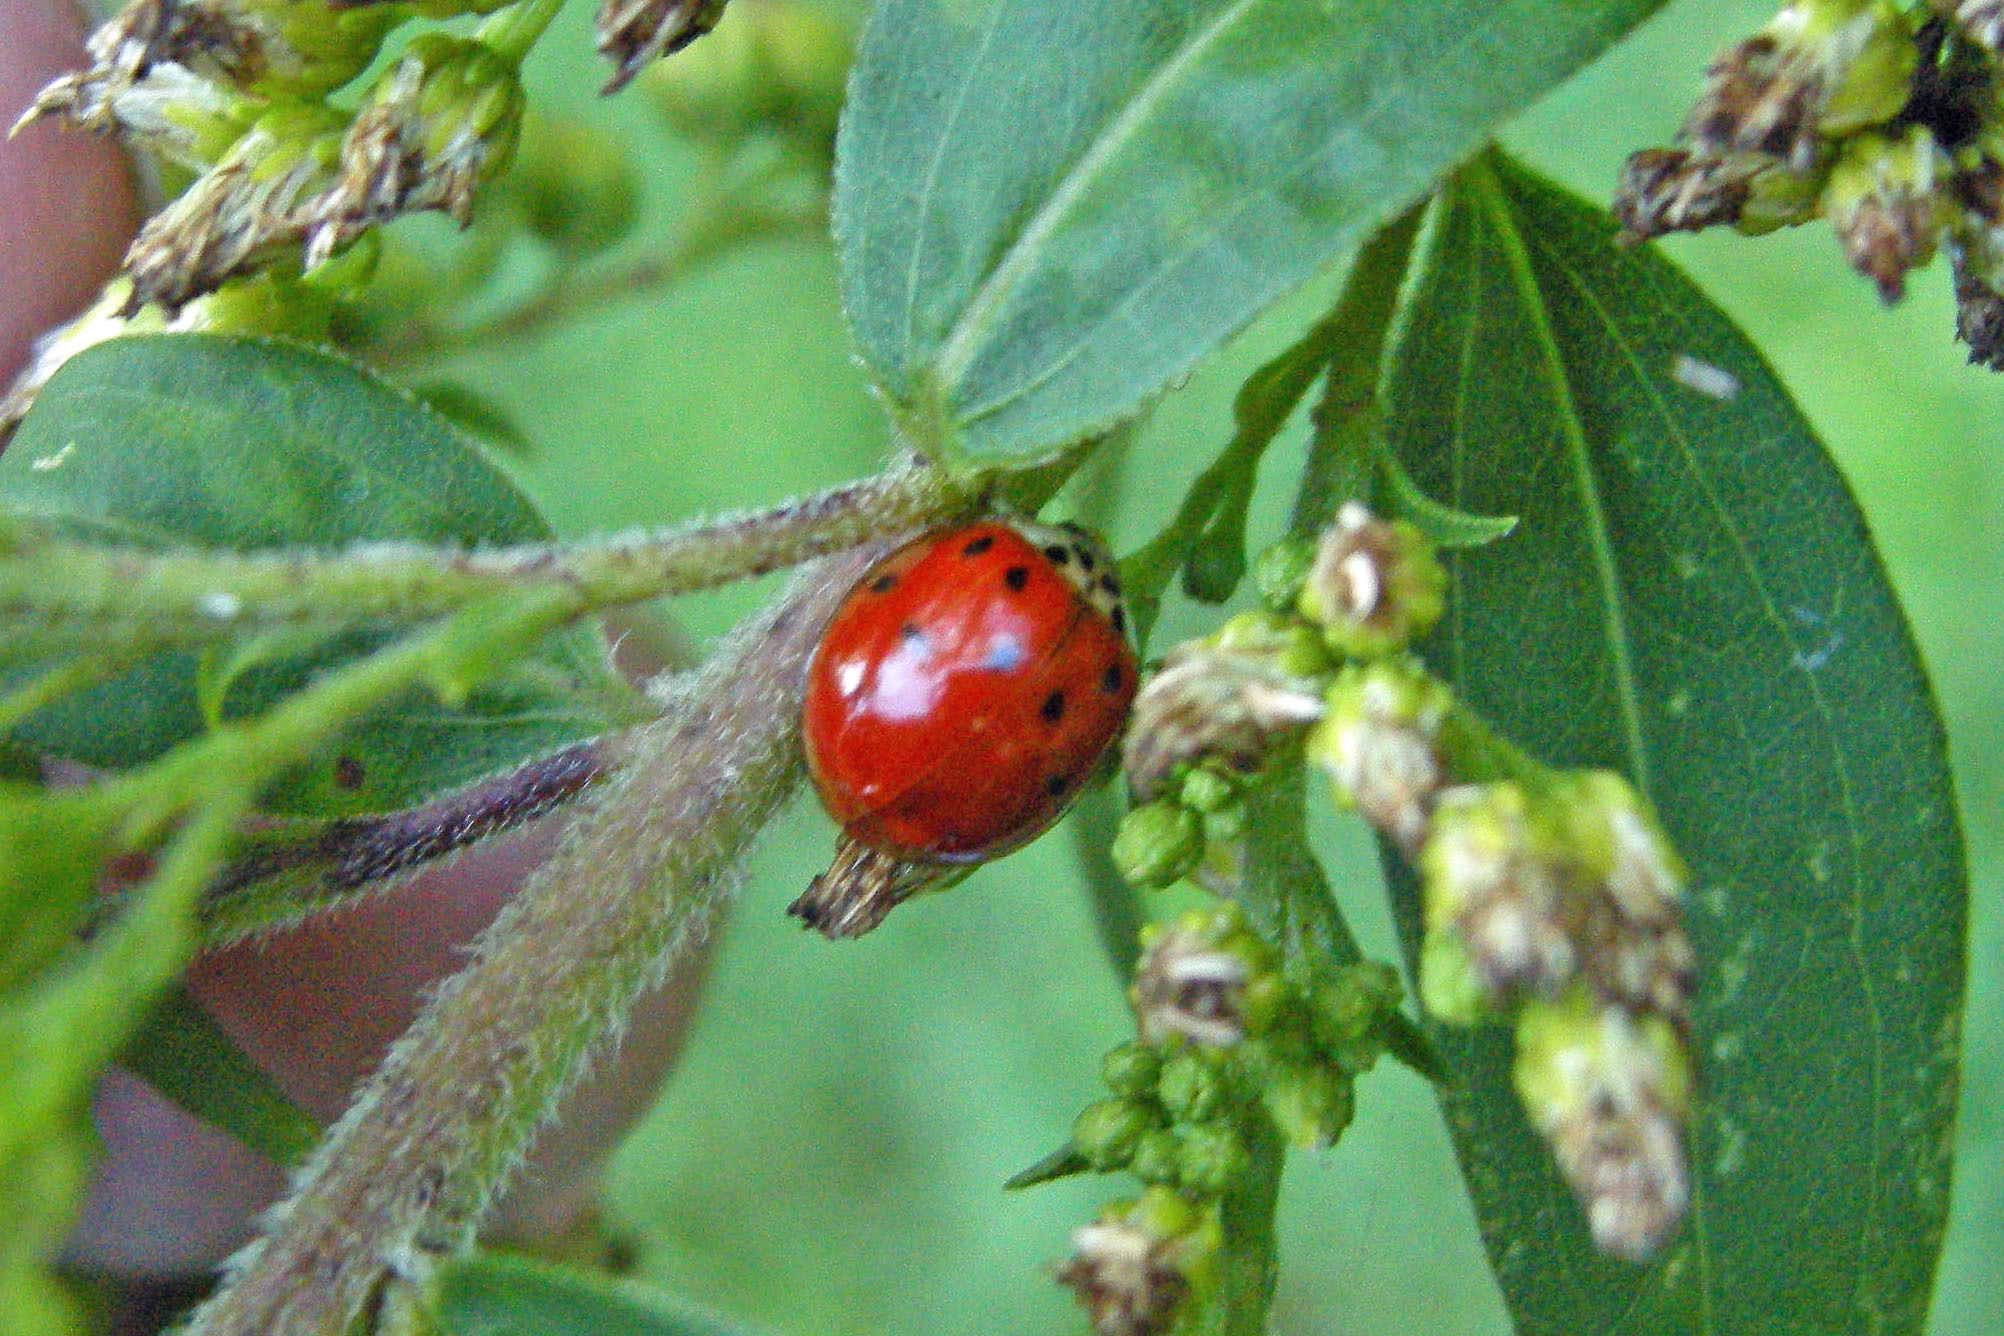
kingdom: Animalia
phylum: Arthropoda
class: Insecta
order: Coleoptera
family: Coccinellidae
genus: Harmonia
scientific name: Harmonia axyridis
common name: Harlequin ladybird
